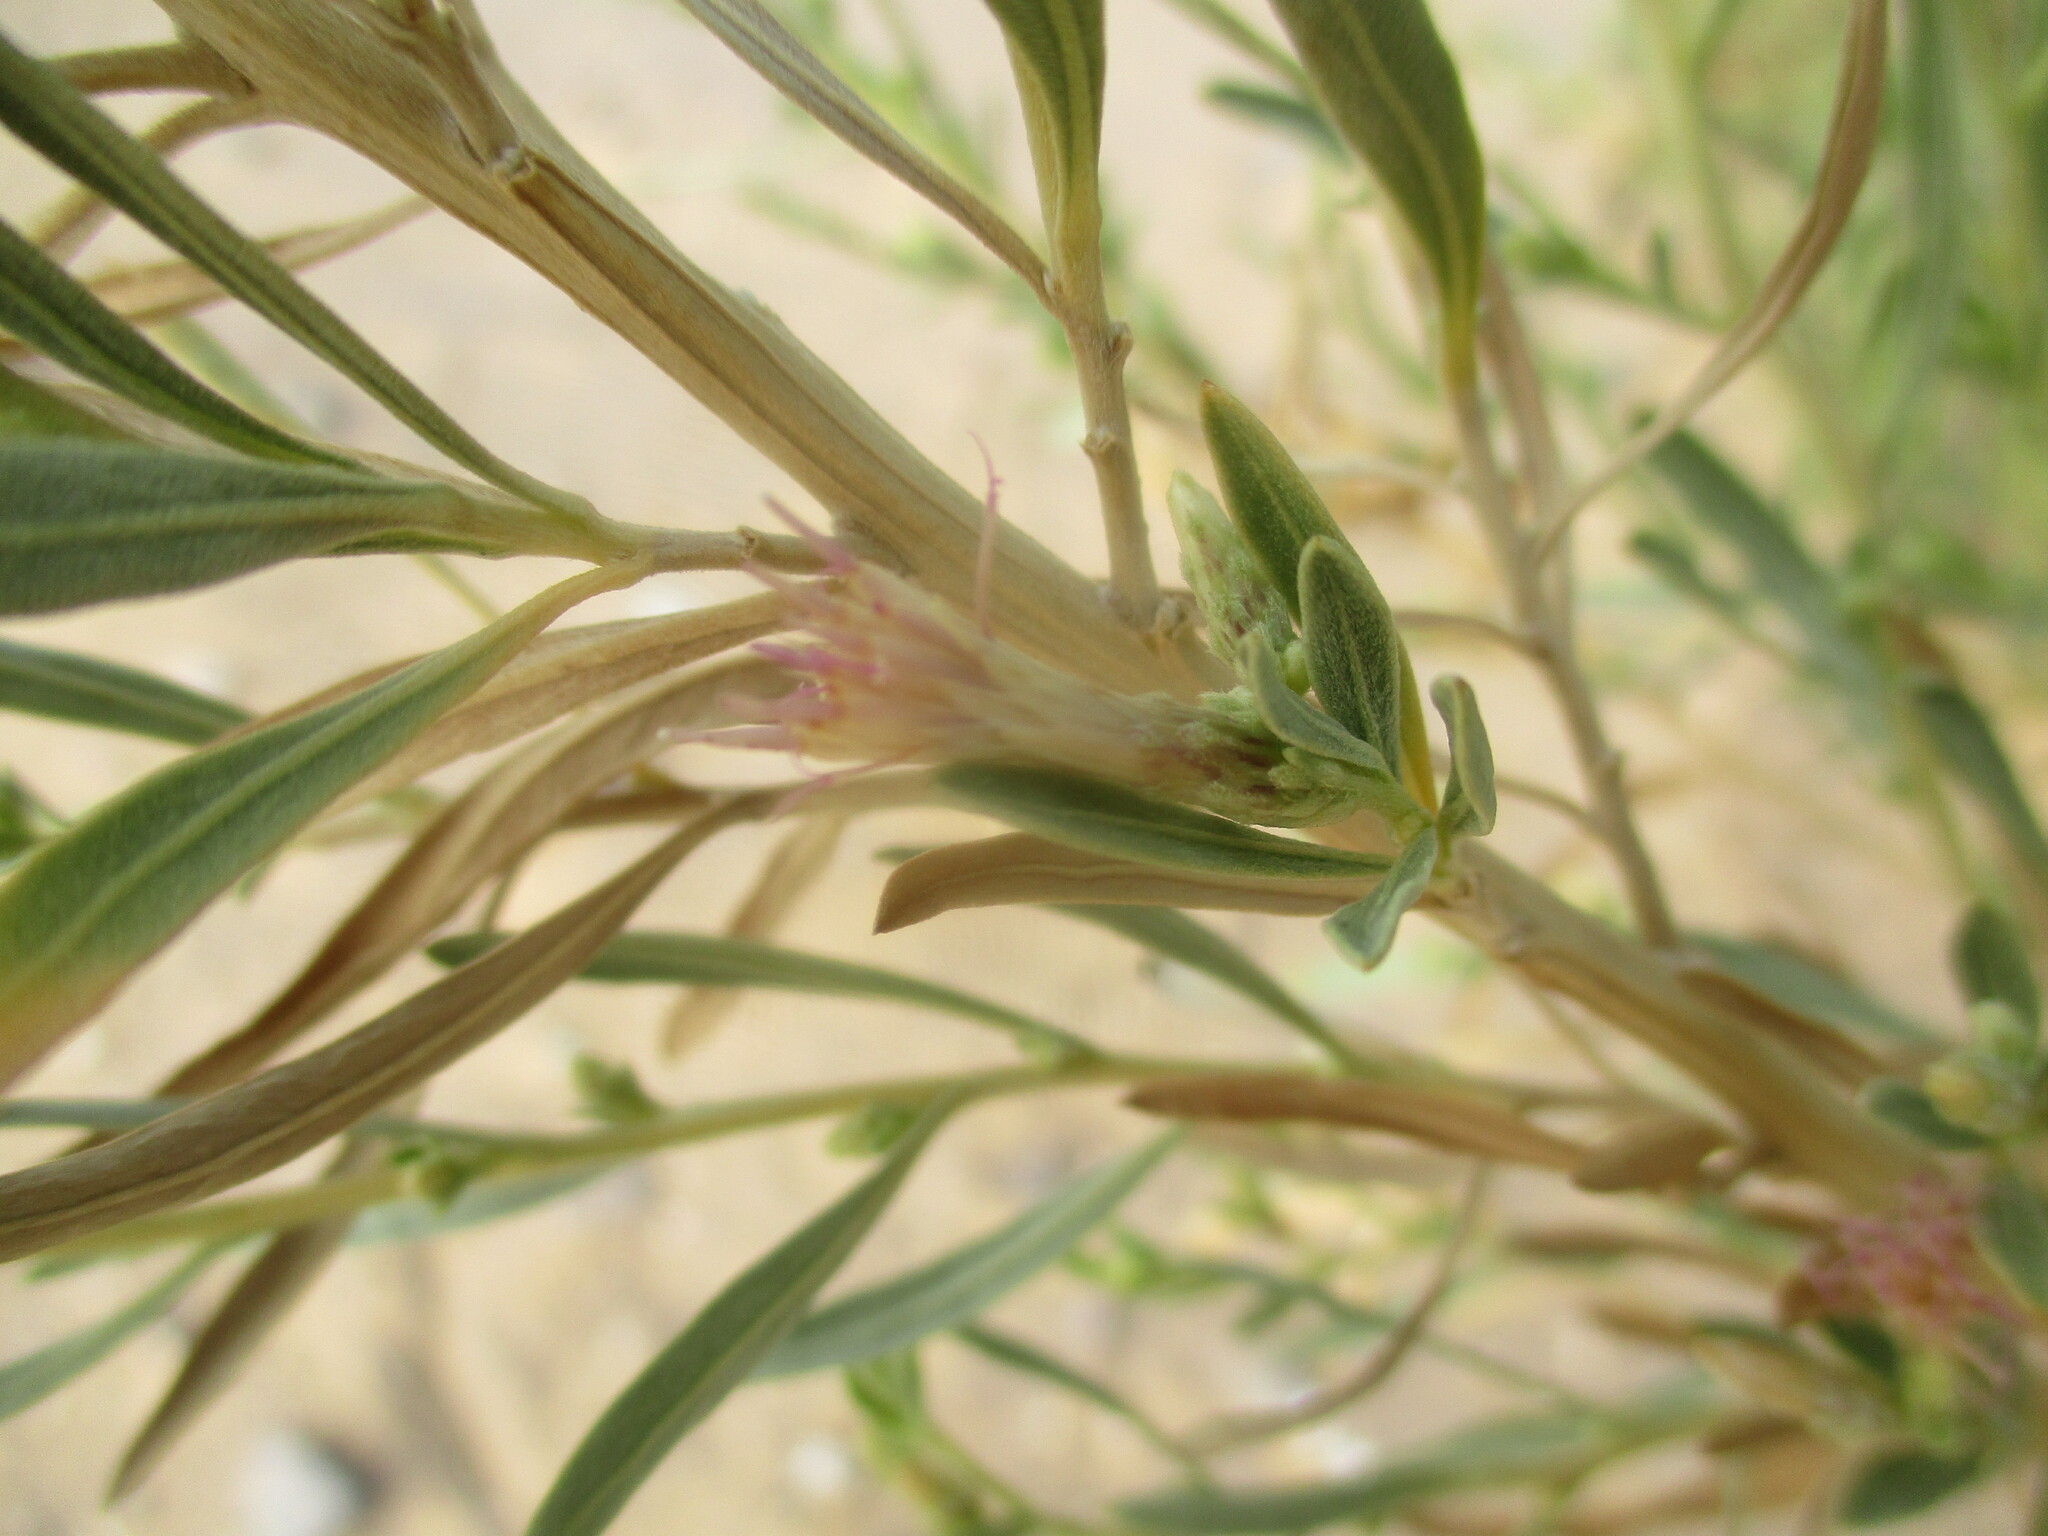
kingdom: Plantae
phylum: Tracheophyta
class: Magnoliopsida
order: Asterales
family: Asteraceae
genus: Pechuel-loeschea
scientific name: Pechuel-loeschea leubnitziae
